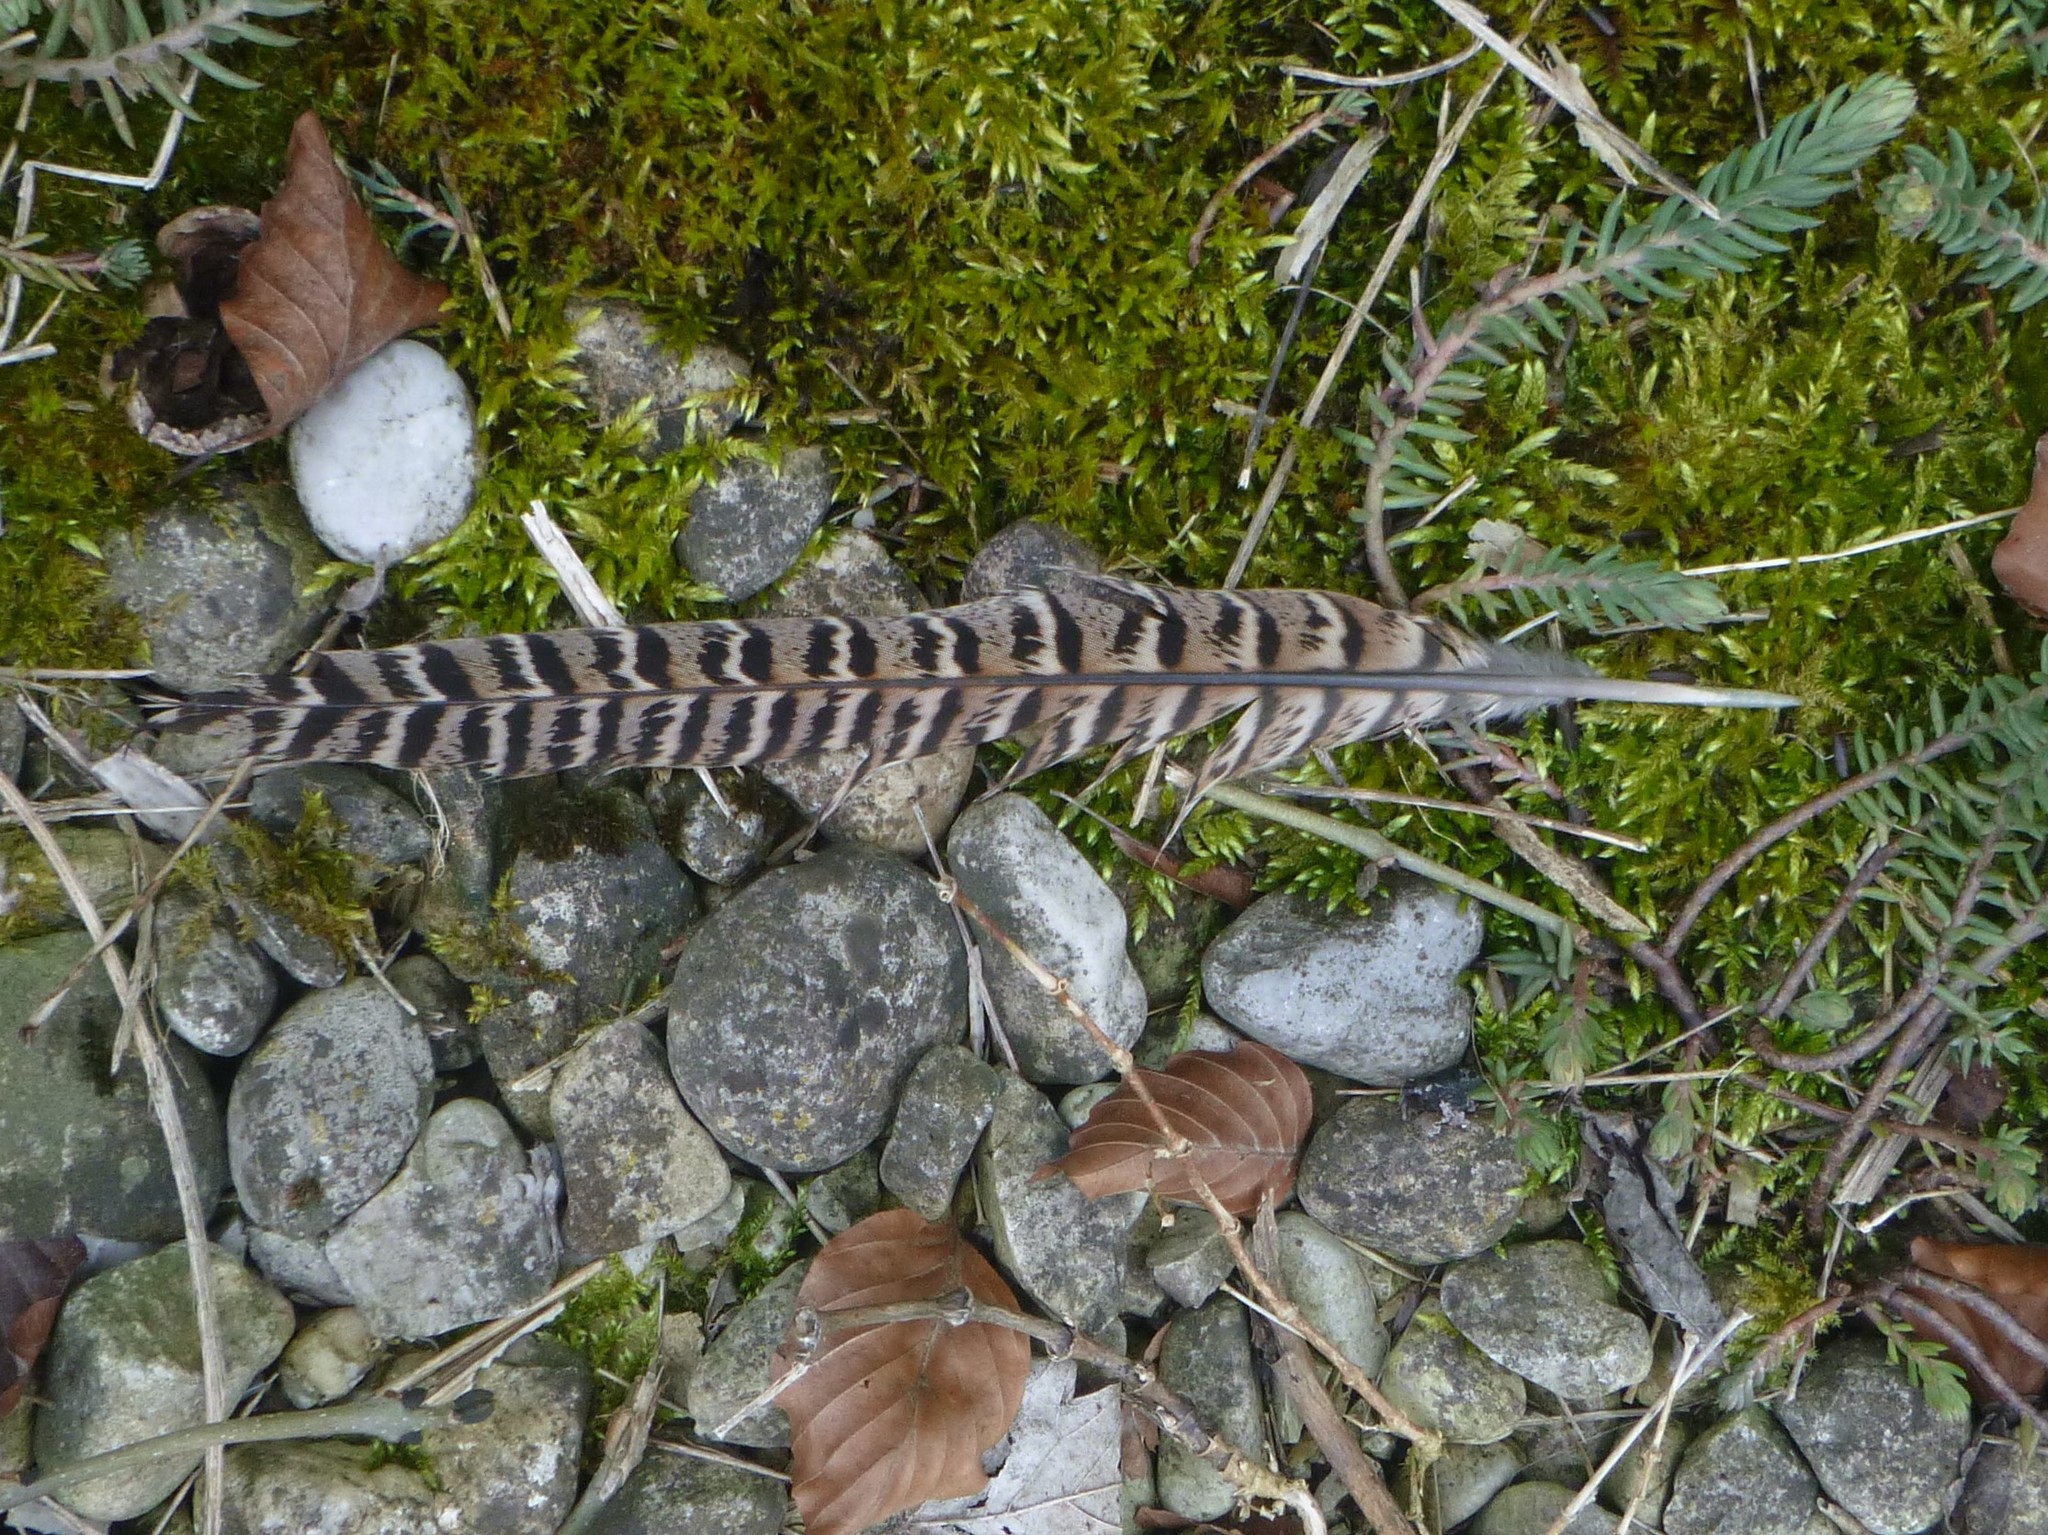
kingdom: Animalia
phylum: Chordata
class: Aves
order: Galliformes
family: Phasianidae
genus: Phasianus
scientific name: Phasianus colchicus
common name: Common pheasant
